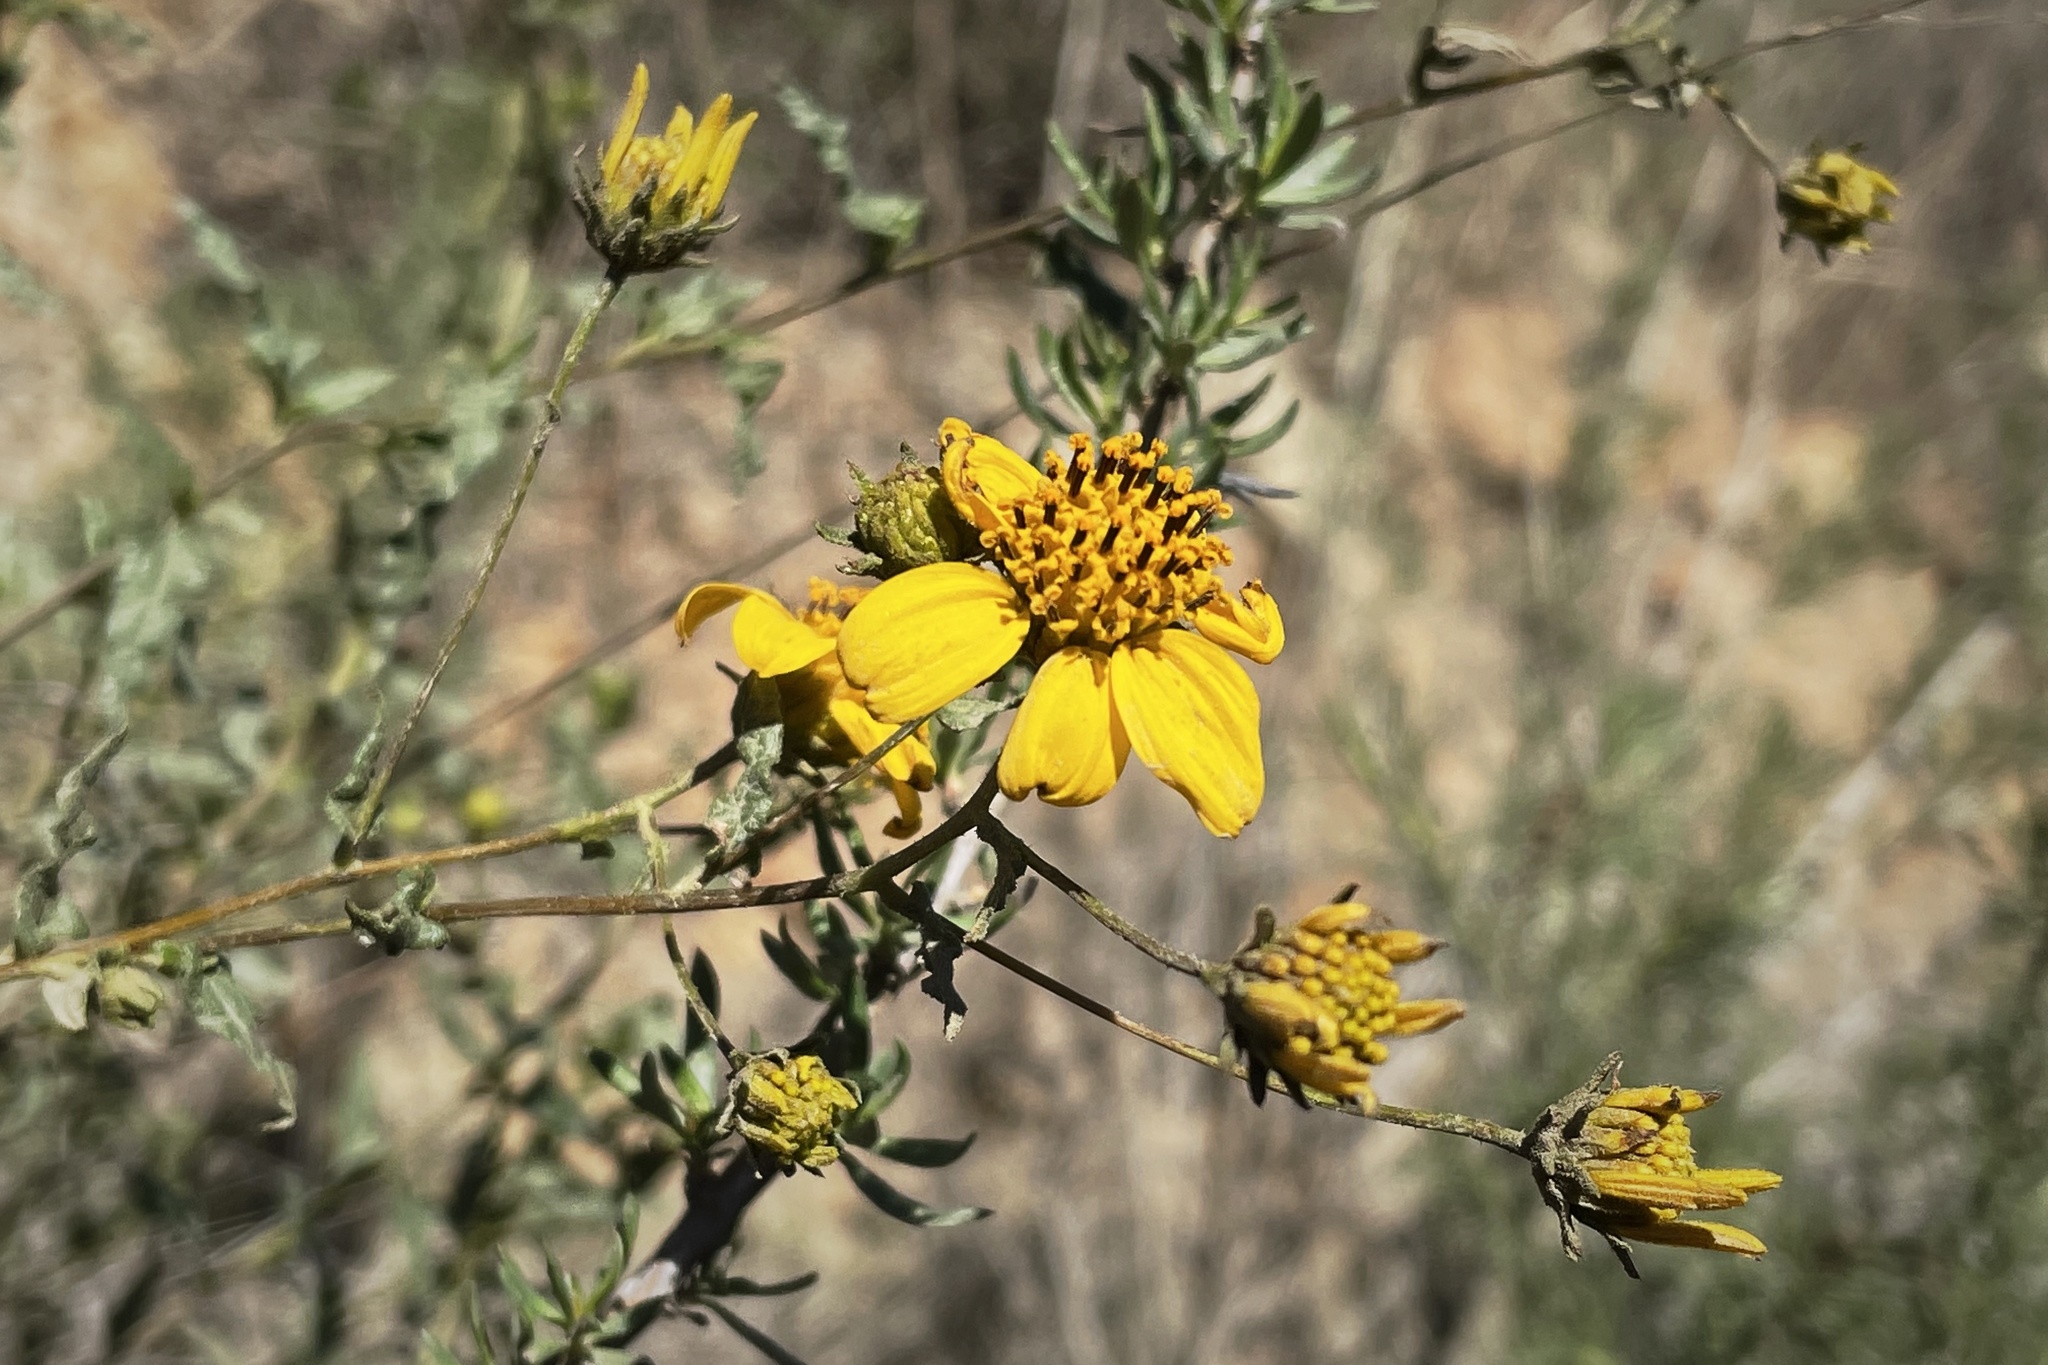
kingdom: Plantae
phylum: Tracheophyta
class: Magnoliopsida
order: Asterales
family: Asteraceae
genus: Bahiopsis
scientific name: Bahiopsis laciniata
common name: San diego county viguiera
